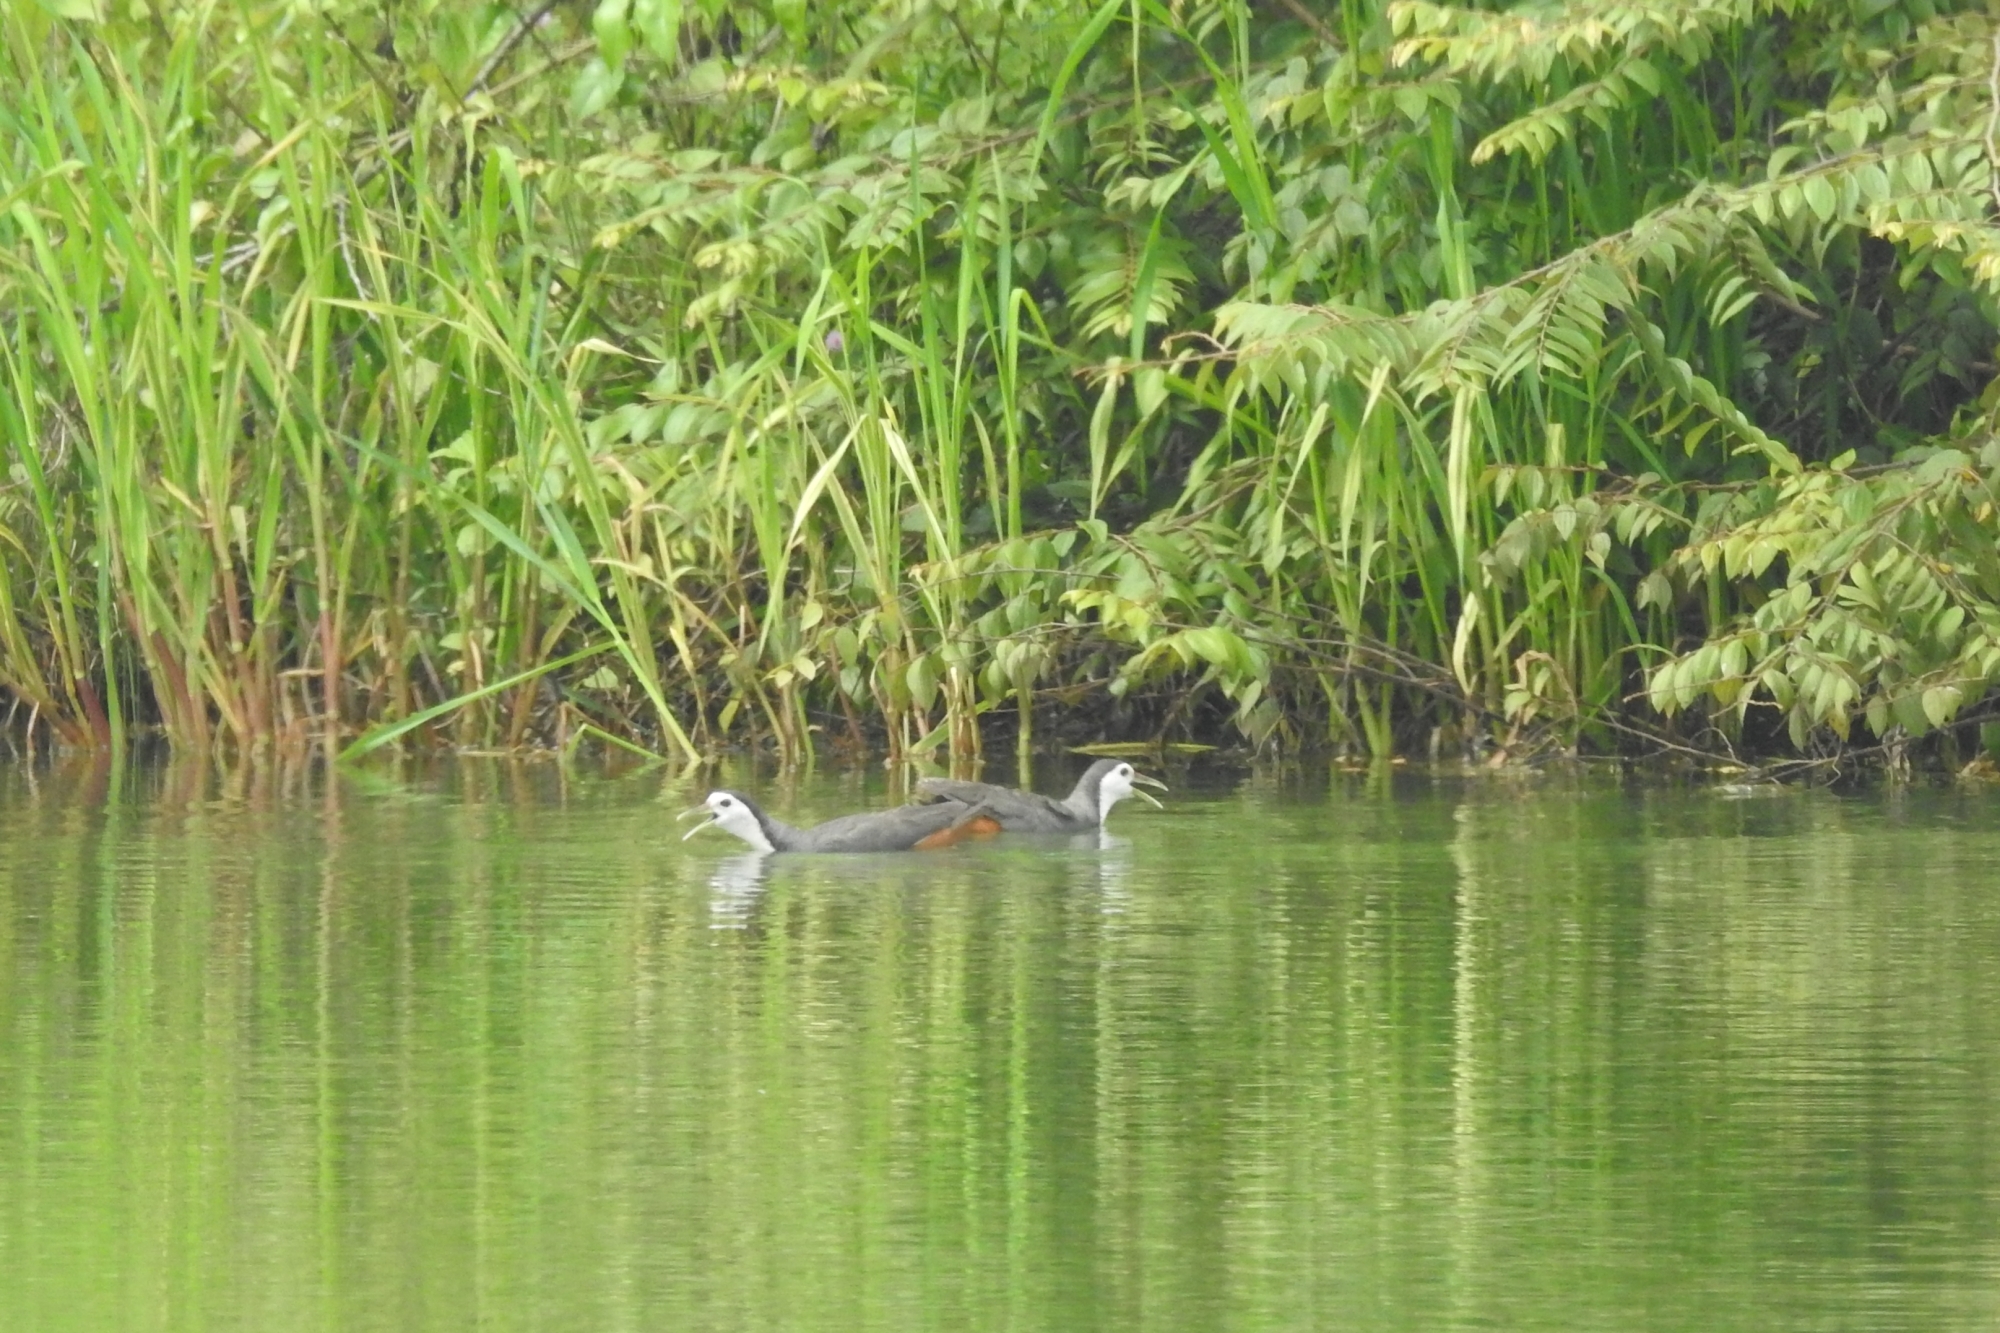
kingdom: Animalia
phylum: Chordata
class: Aves
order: Gruiformes
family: Rallidae
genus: Amaurornis
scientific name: Amaurornis phoenicurus
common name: White-breasted waterhen
